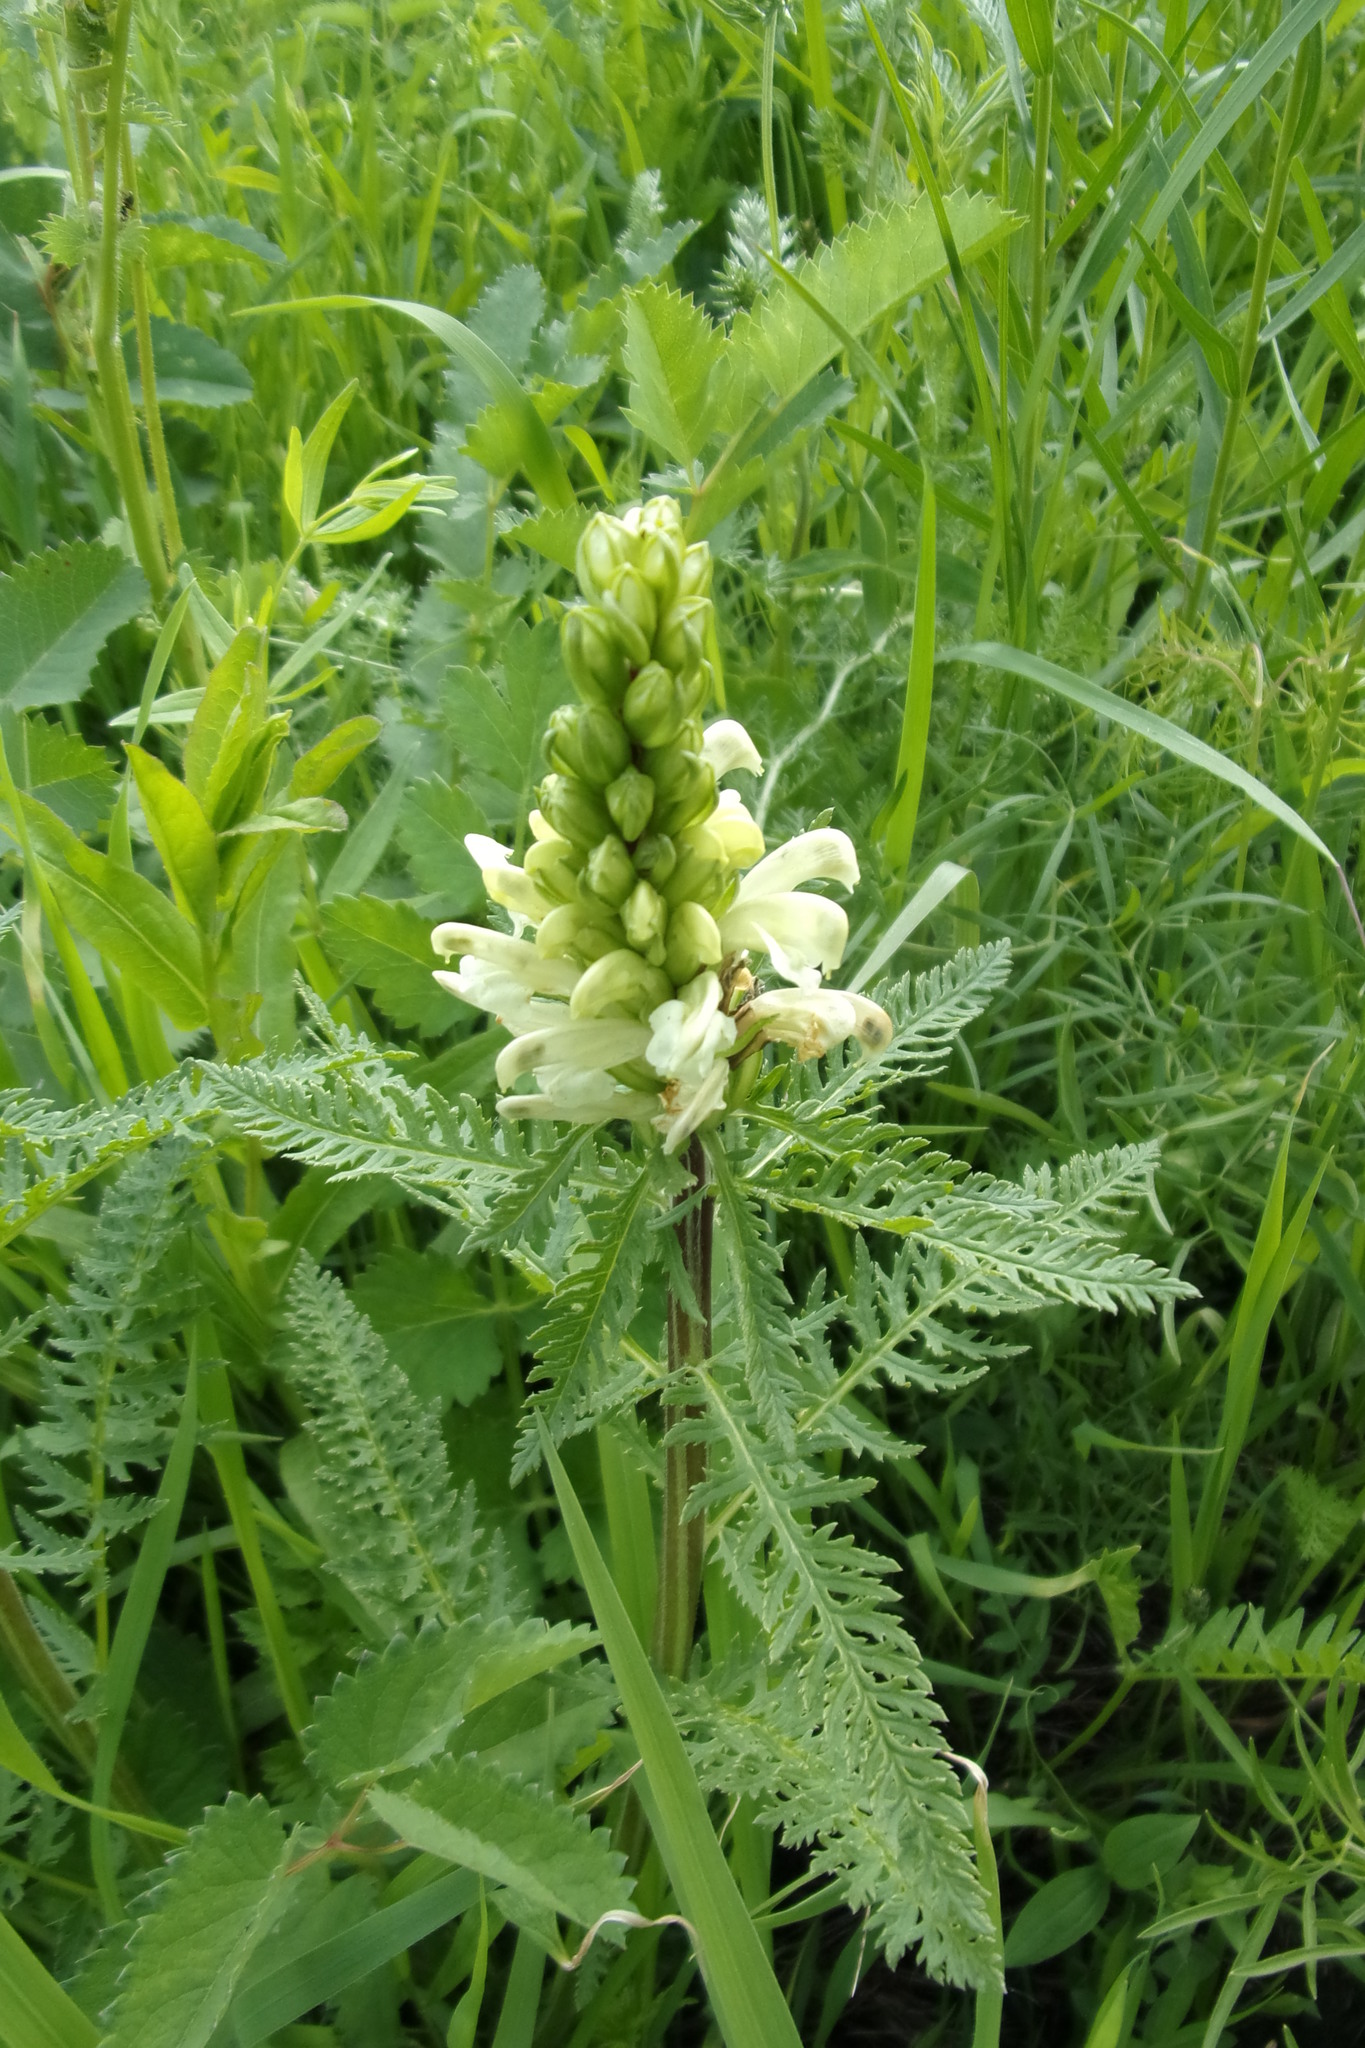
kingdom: Plantae
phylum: Tracheophyta
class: Magnoliopsida
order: Lamiales
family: Orobanchaceae
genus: Pedicularis
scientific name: Pedicularis sibirica
